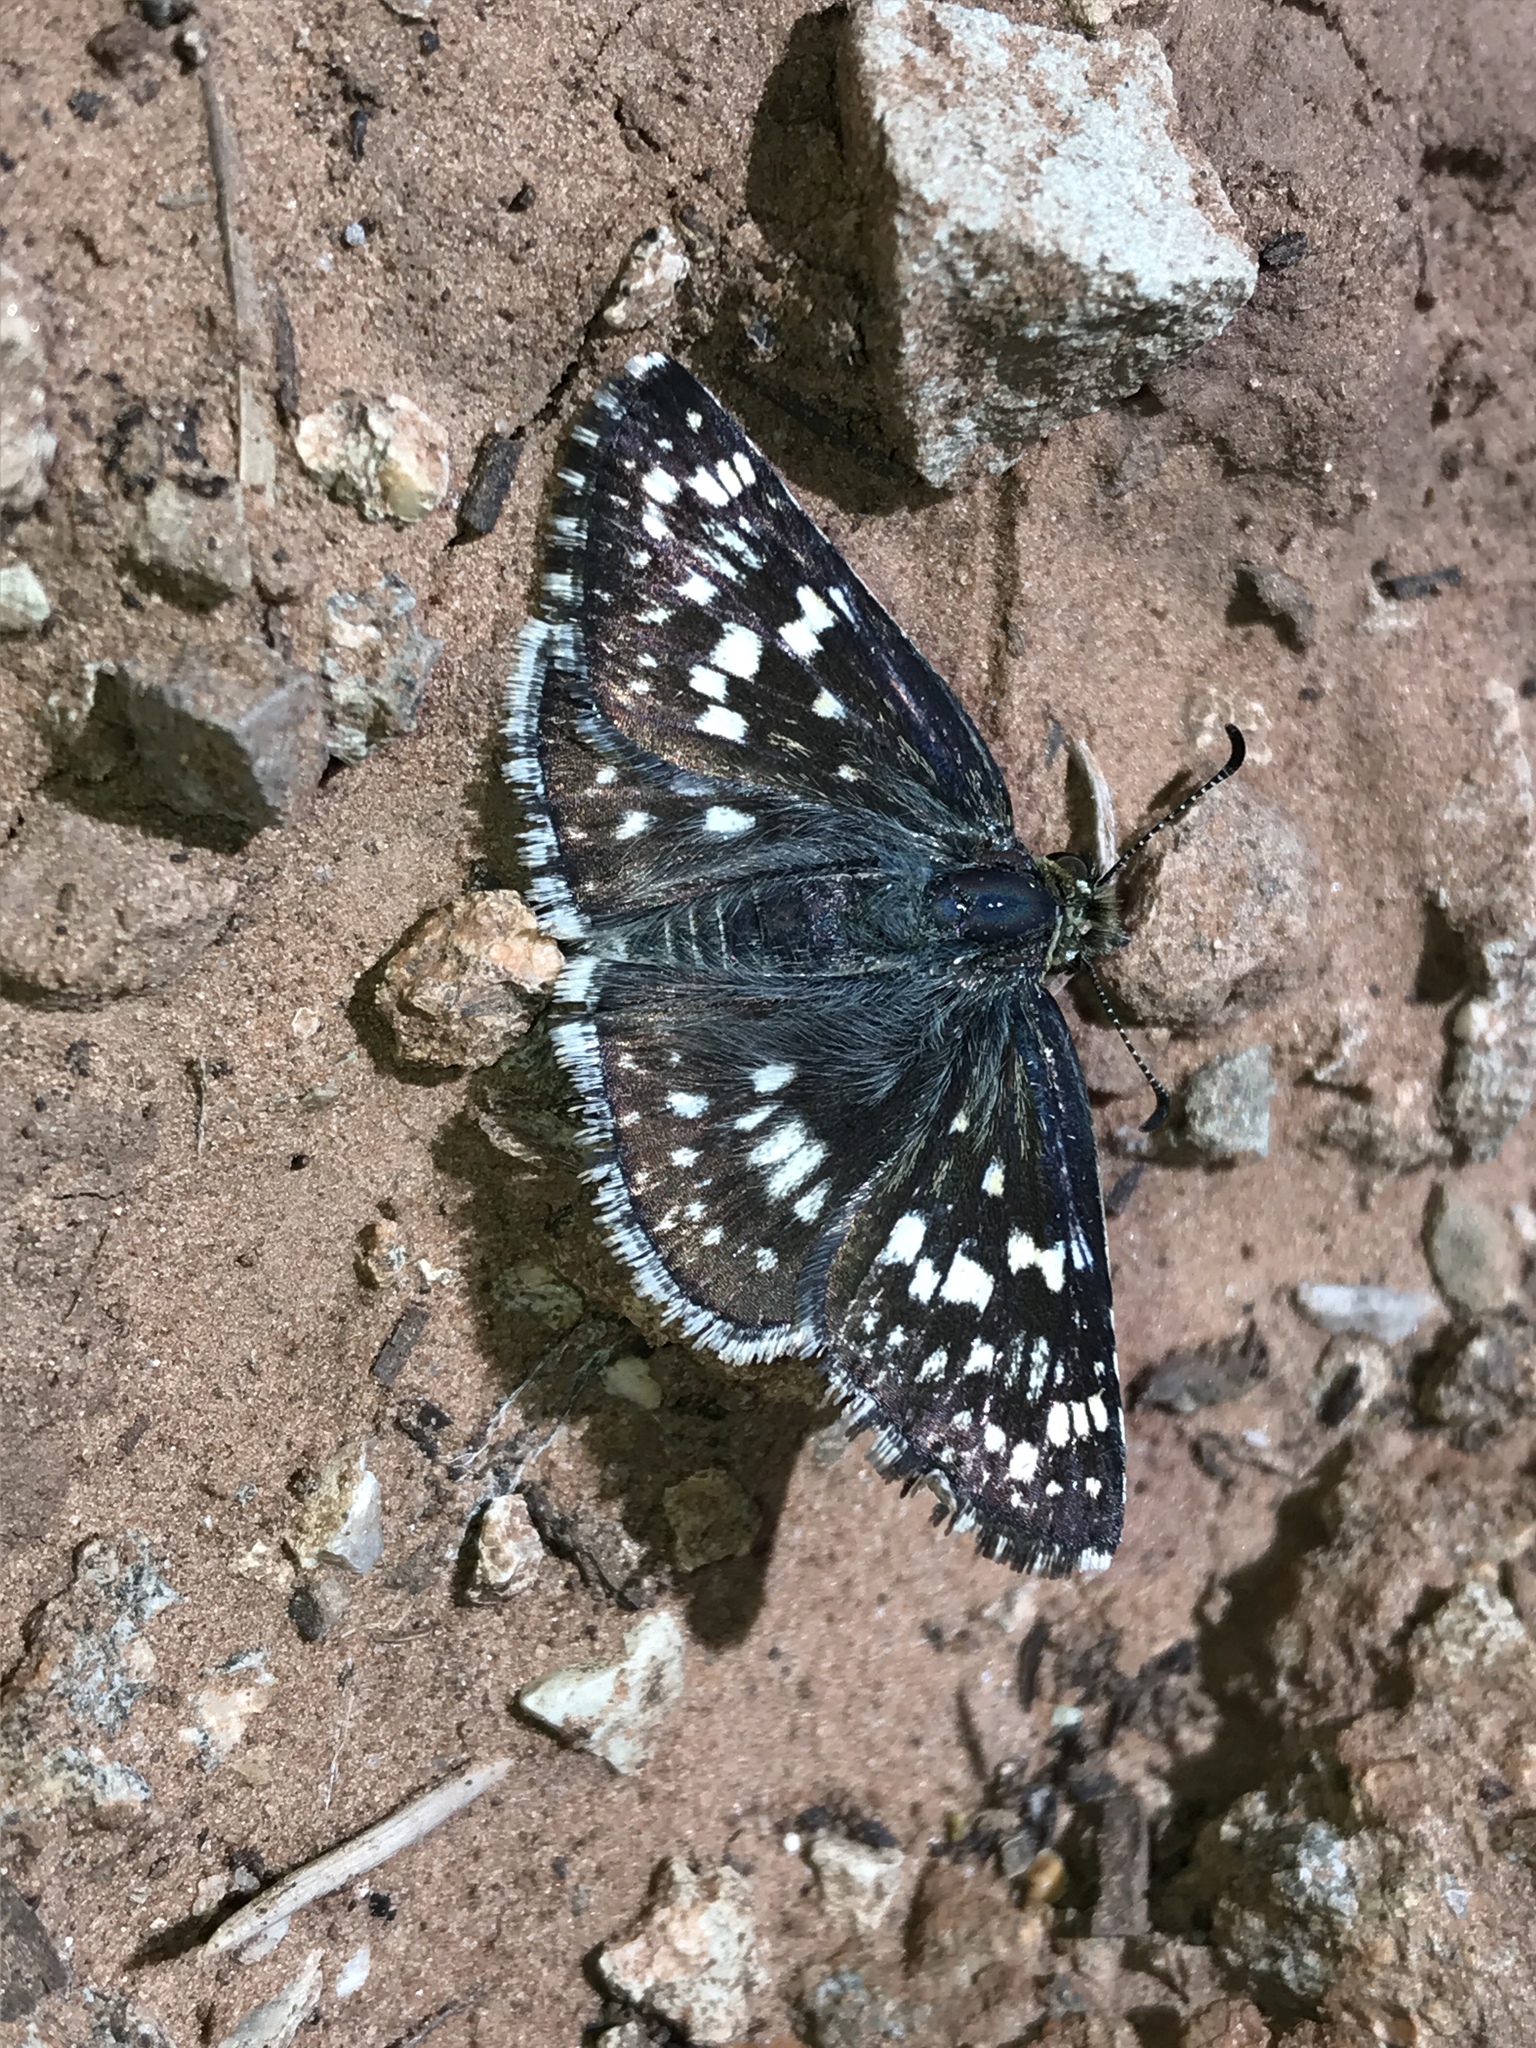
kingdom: Animalia
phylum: Arthropoda
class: Insecta
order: Lepidoptera
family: Hesperiidae
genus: Burnsius
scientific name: Burnsius communis
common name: Common checkered-skipper
